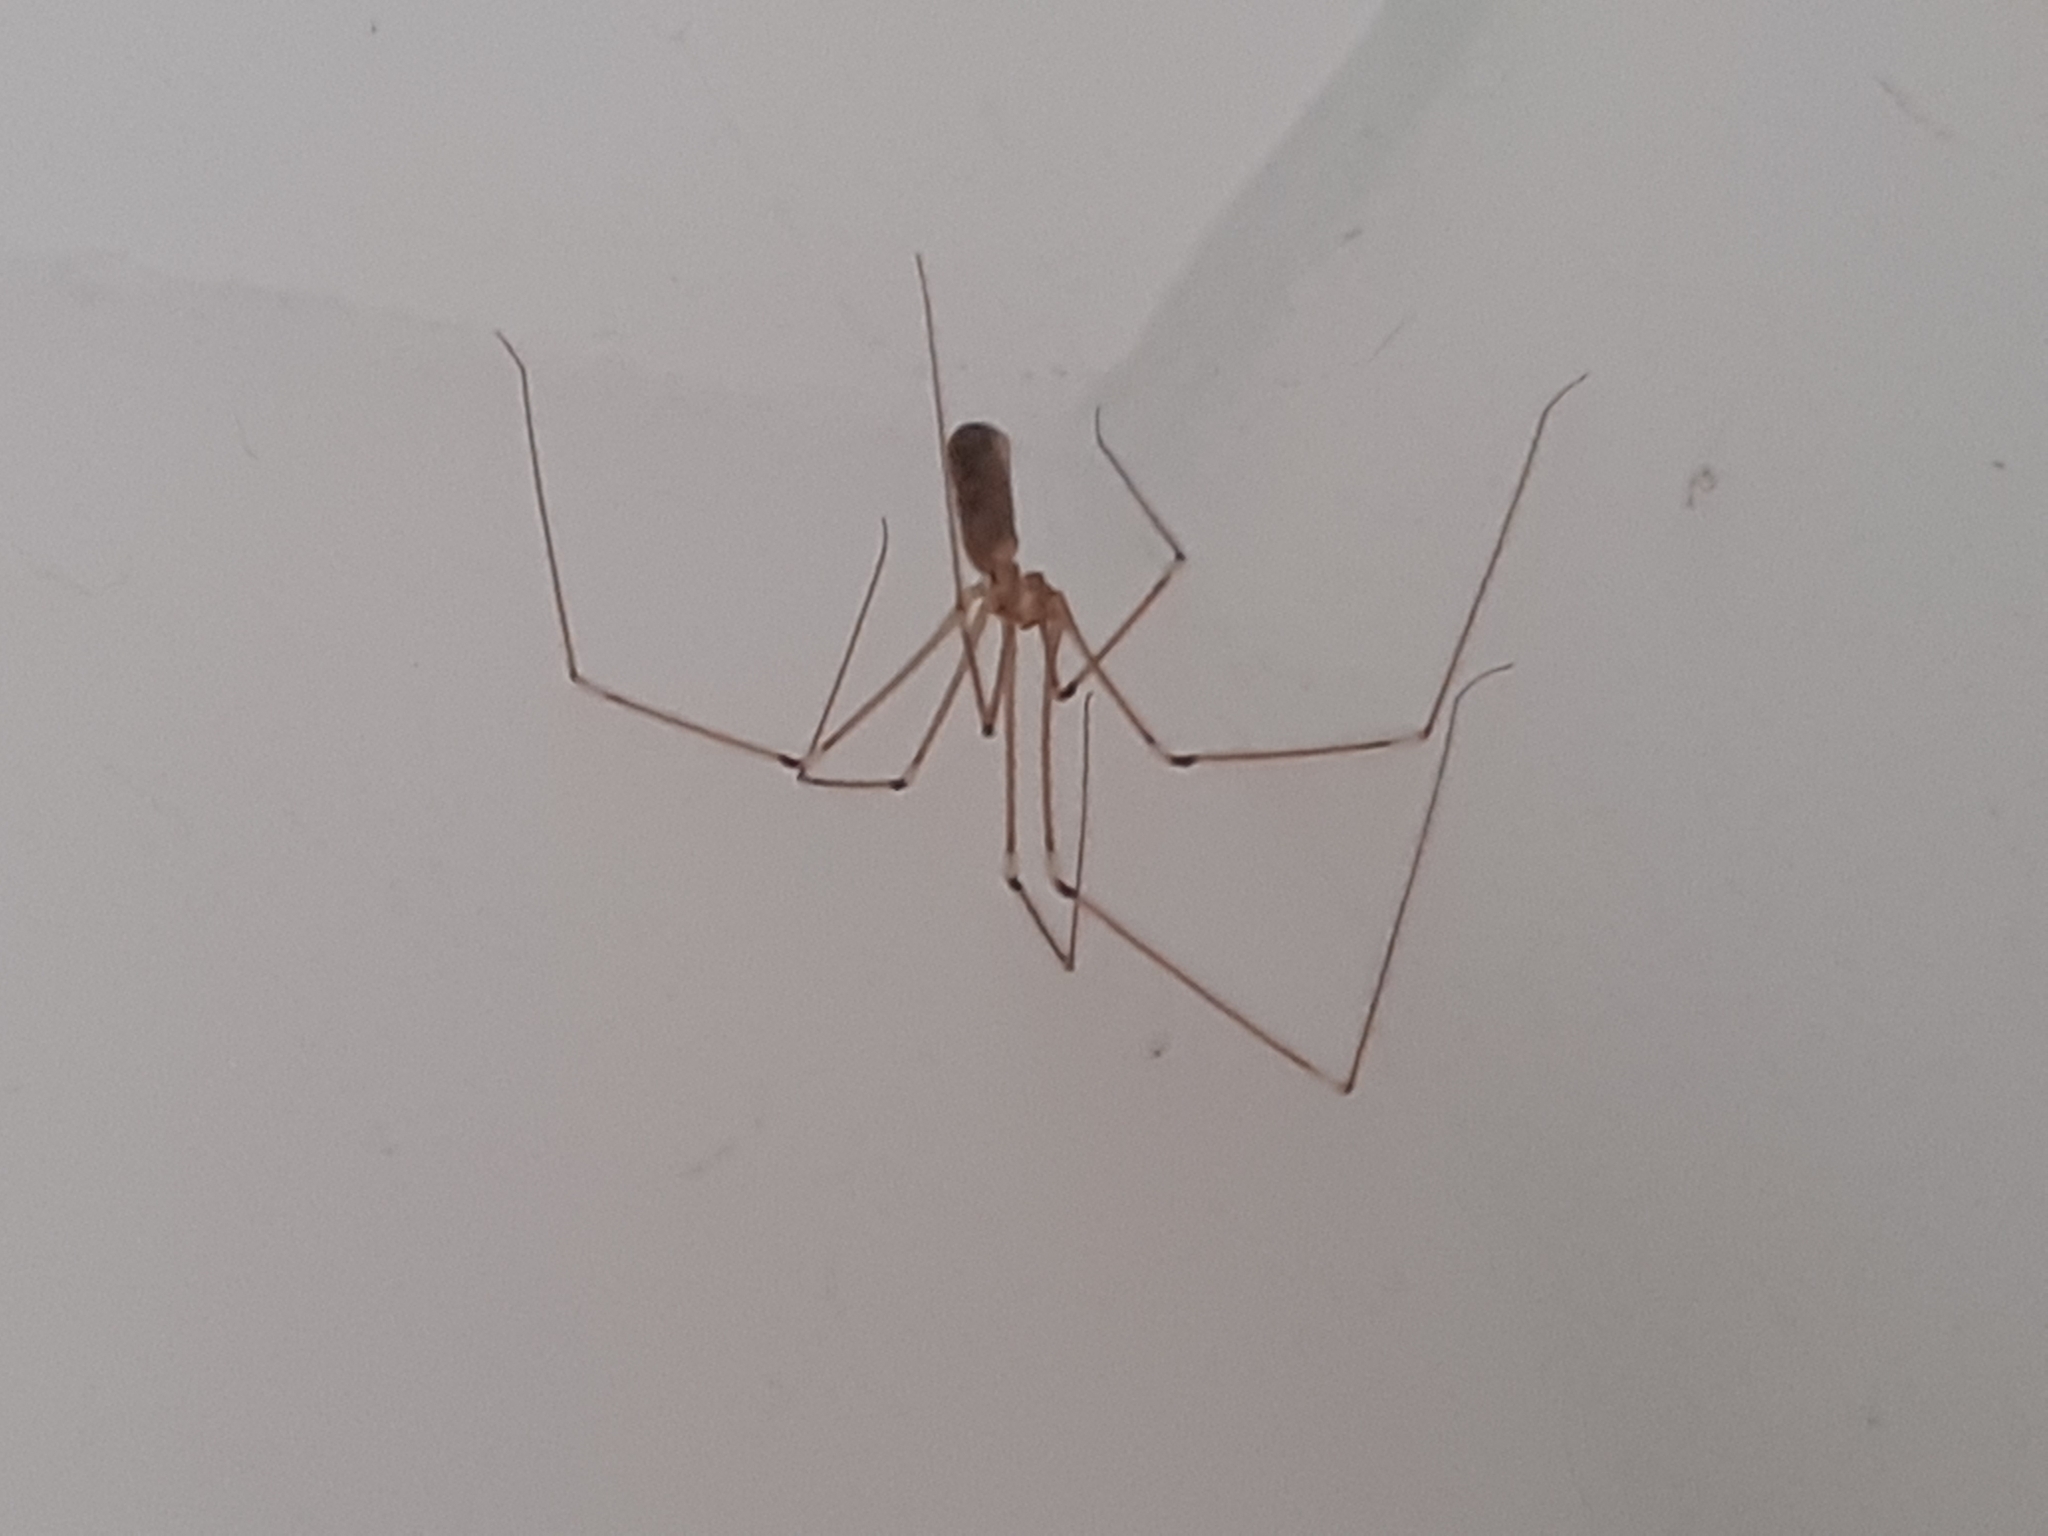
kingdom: Animalia
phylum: Arthropoda
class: Arachnida
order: Araneae
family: Pholcidae
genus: Pholcus
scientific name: Pholcus phalangioides
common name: Longbodied cellar spider
